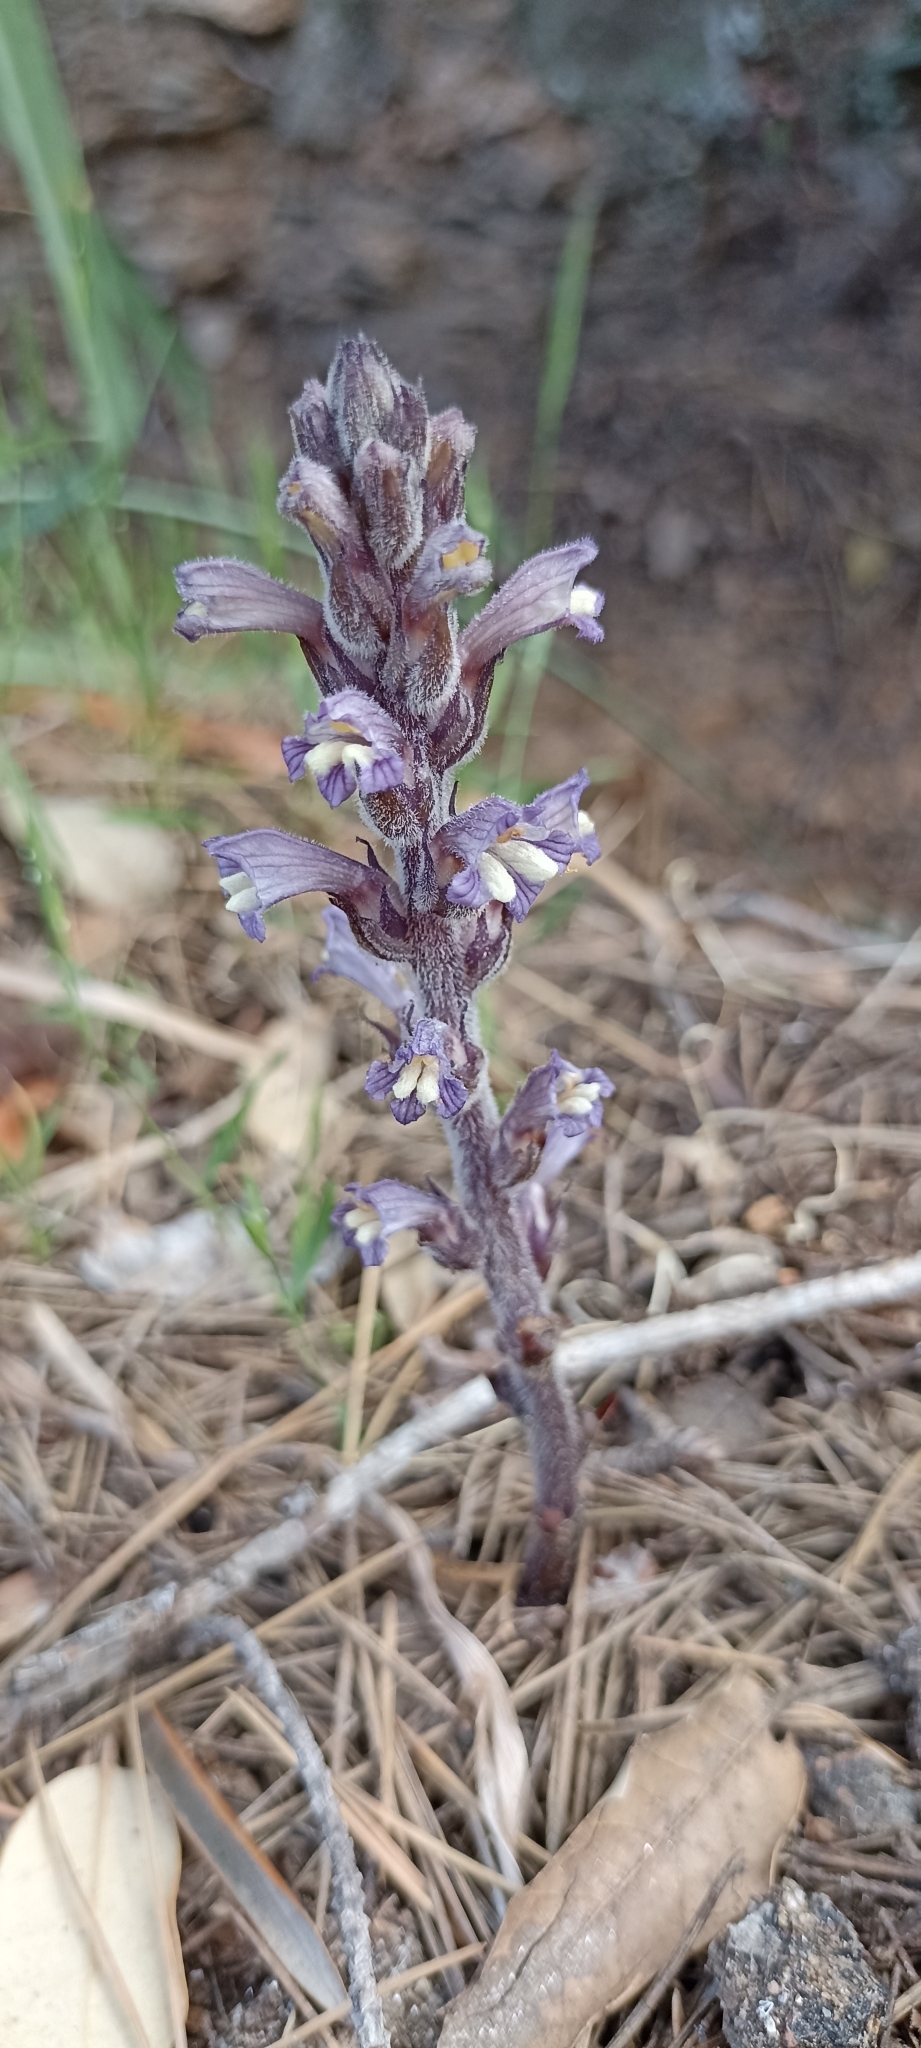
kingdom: Plantae
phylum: Tracheophyta
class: Magnoliopsida
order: Lamiales
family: Orobanchaceae
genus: Phelipanche
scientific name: Phelipanche mutelii
